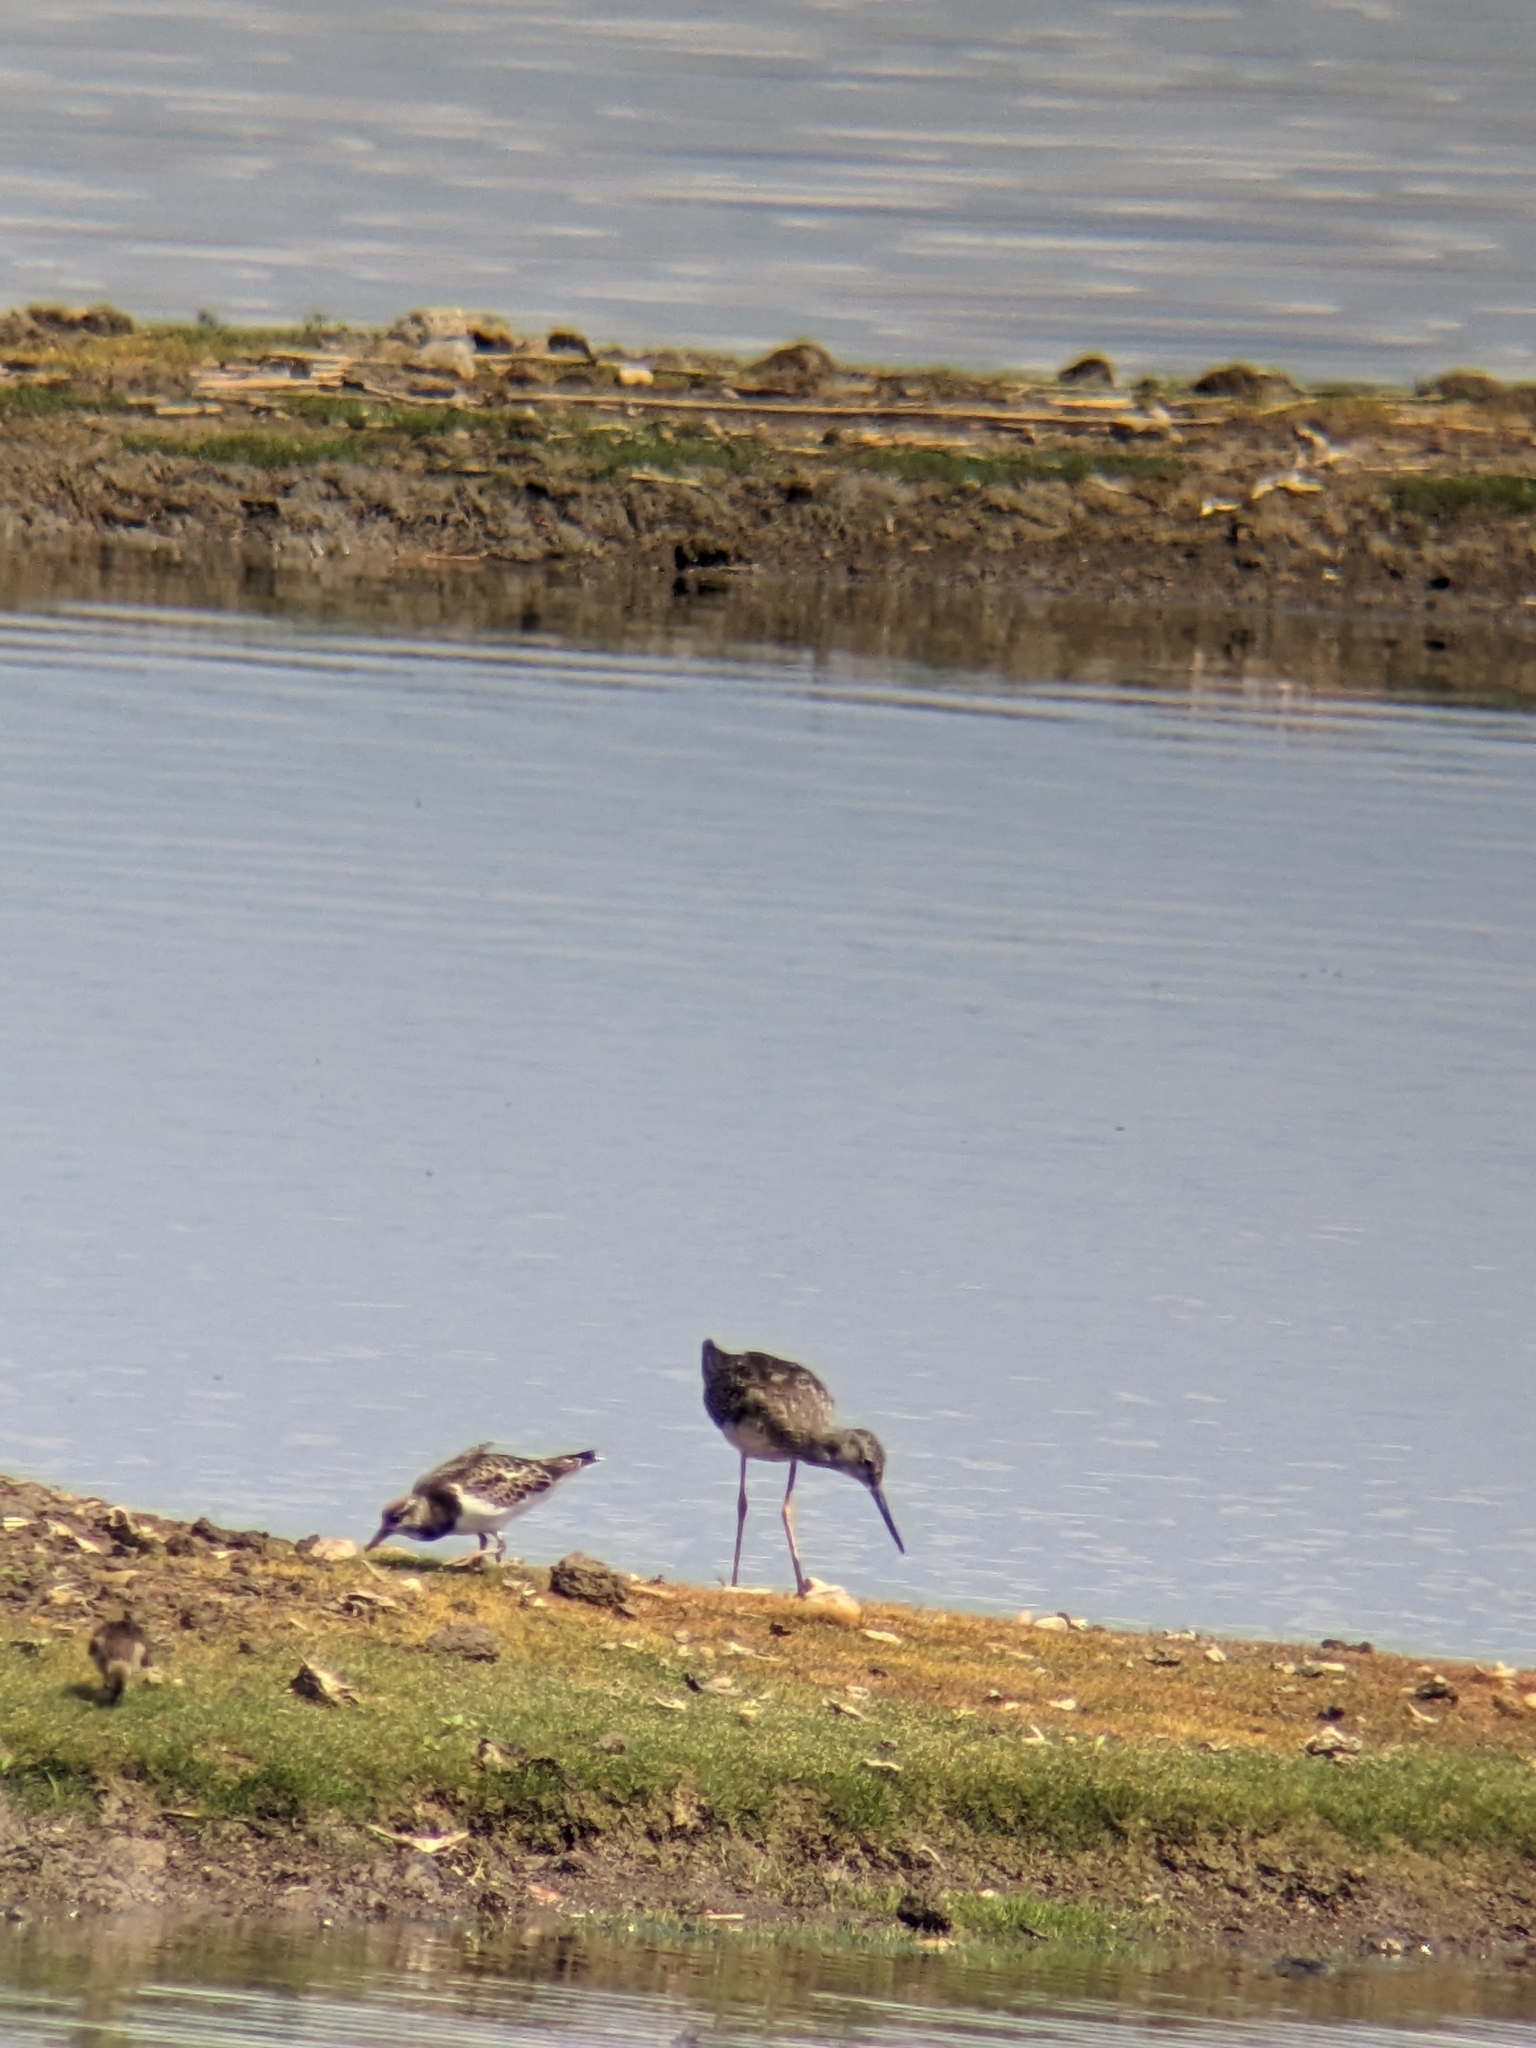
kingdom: Animalia
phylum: Chordata
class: Aves
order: Charadriiformes
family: Scolopacidae
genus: Arenaria
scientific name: Arenaria interpres
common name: Ruddy turnstone
